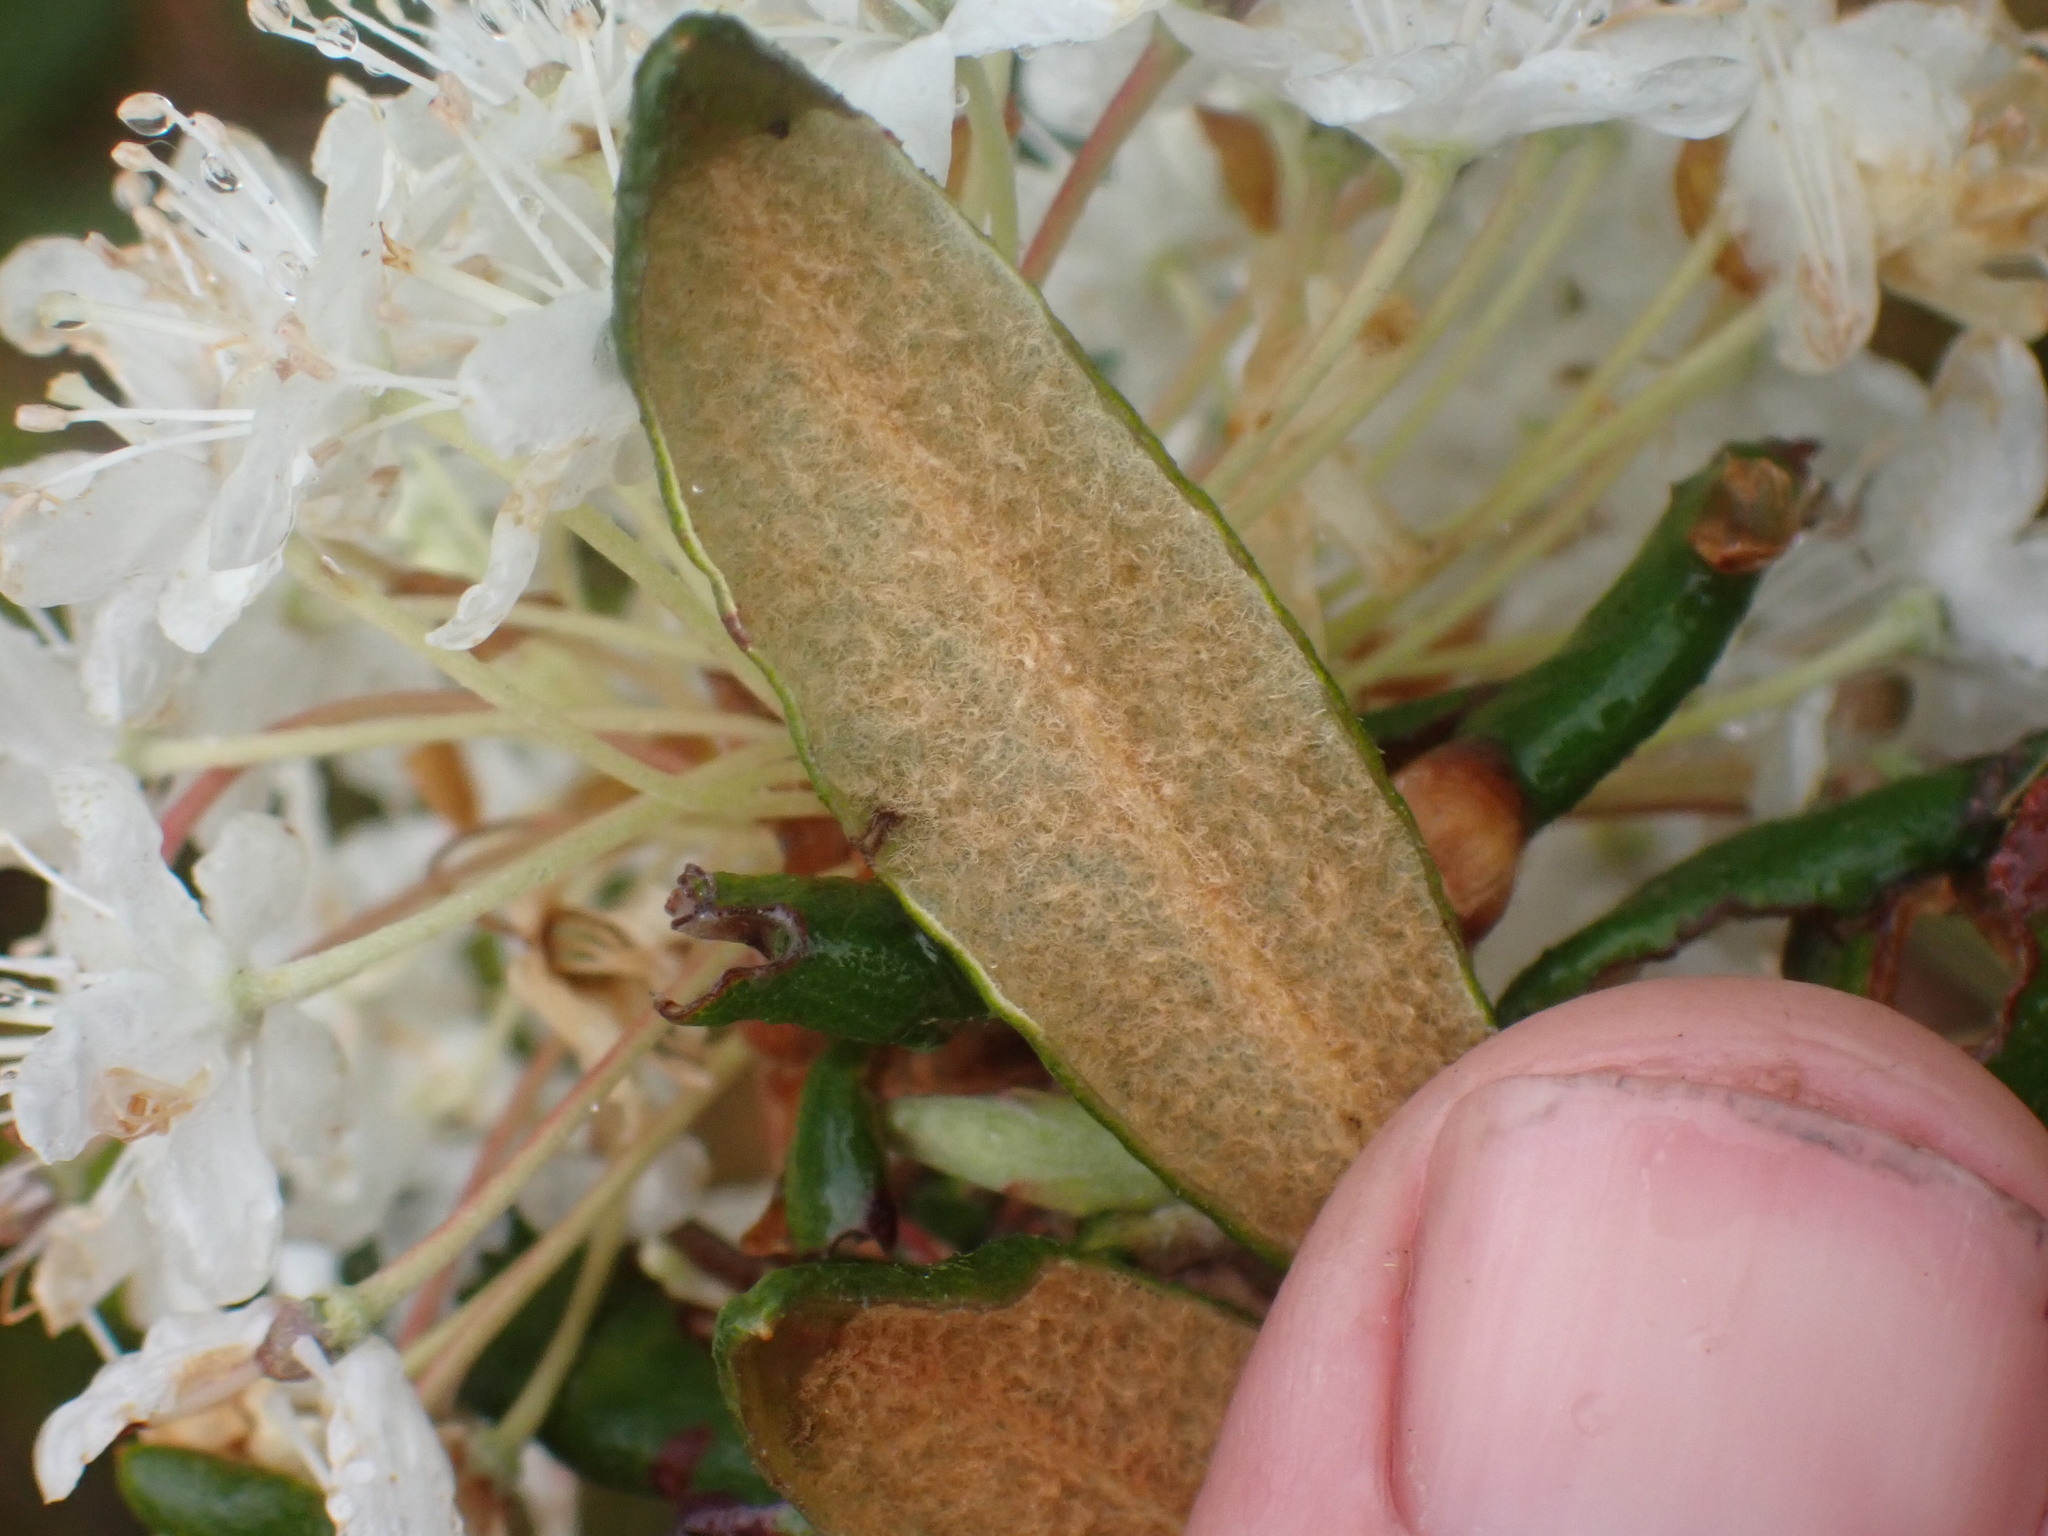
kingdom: Plantae
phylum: Tracheophyta
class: Magnoliopsida
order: Ericales
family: Ericaceae
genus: Rhododendron
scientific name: Rhododendron groenlandicum
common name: Bog labrador tea
